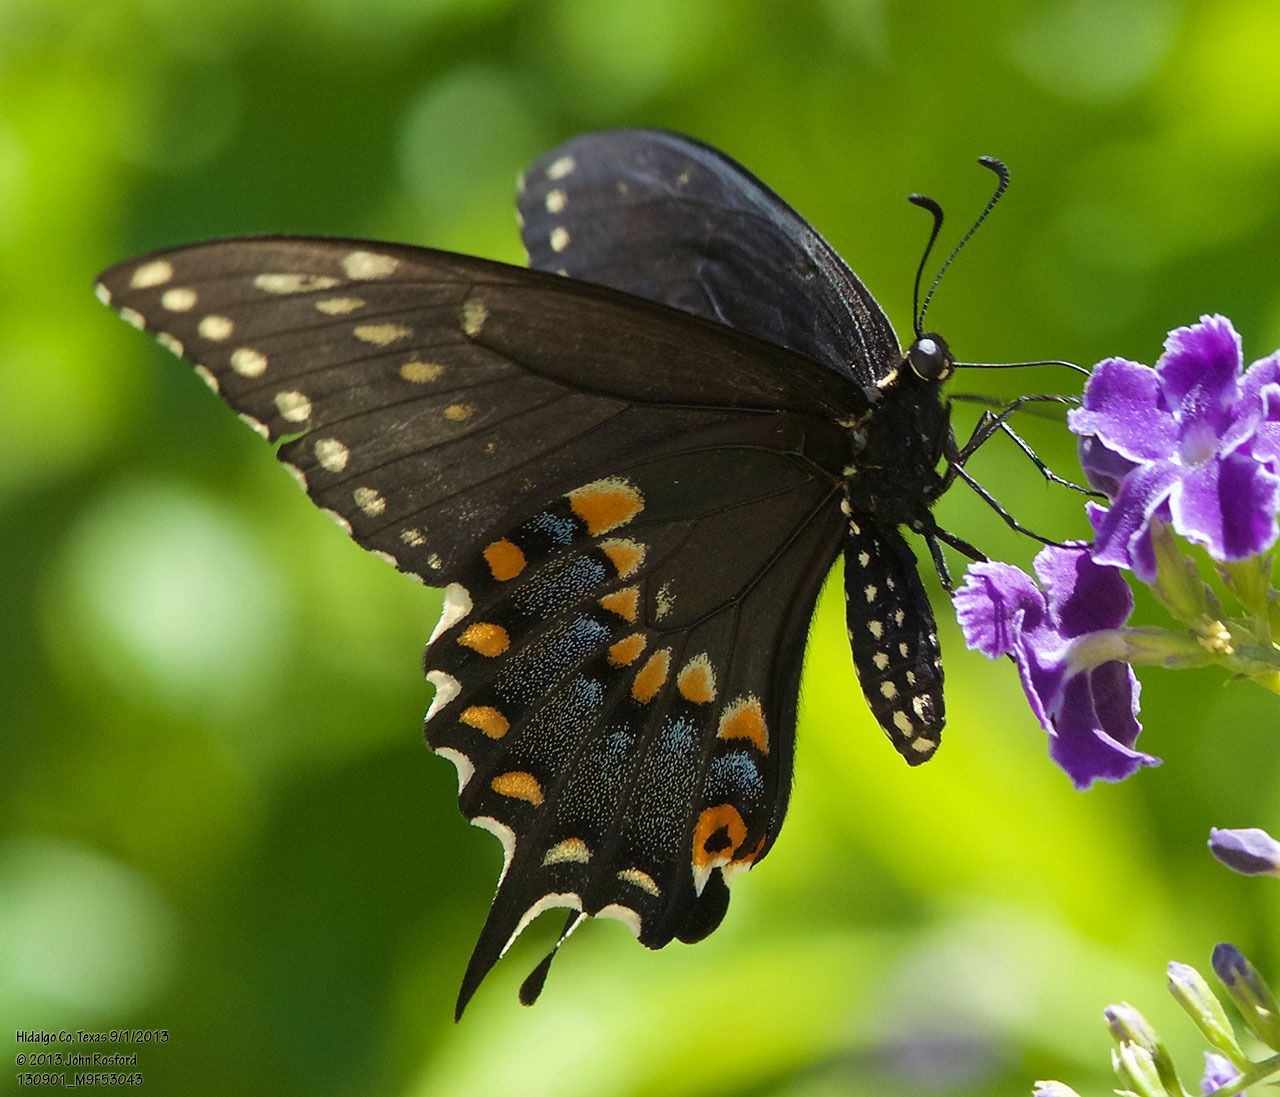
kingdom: Animalia
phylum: Arthropoda
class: Insecta
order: Lepidoptera
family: Papilionidae
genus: Papilio
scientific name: Papilio polyxenes
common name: Black swallowtail
